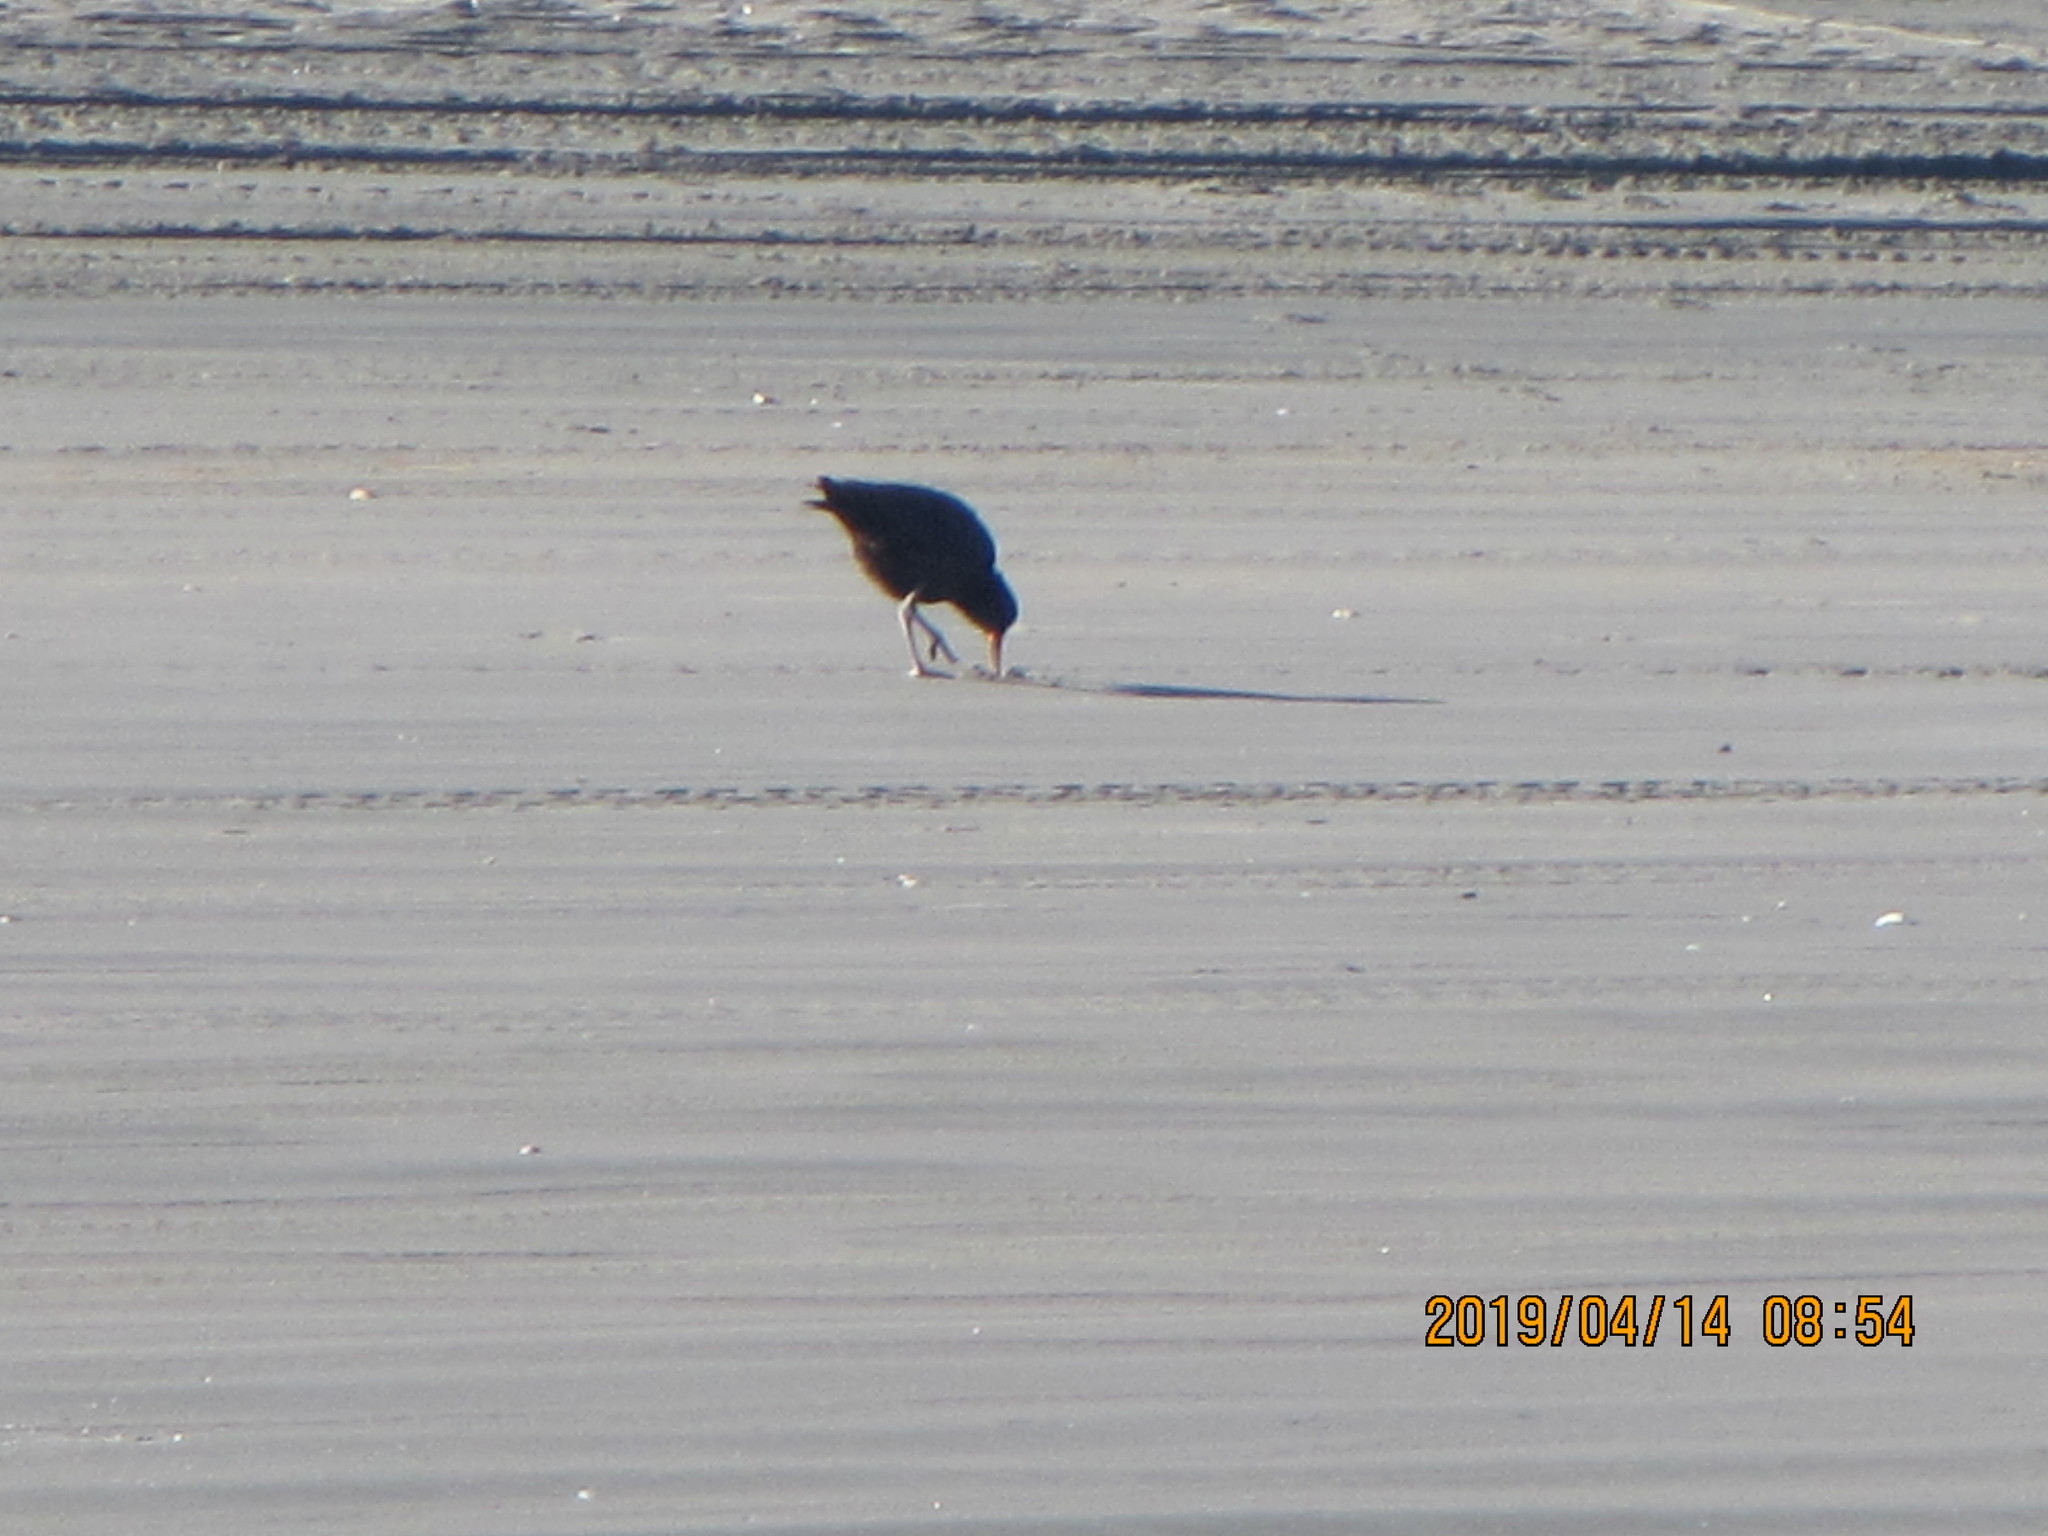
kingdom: Animalia
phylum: Chordata
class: Aves
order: Charadriiformes
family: Haematopodidae
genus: Haematopus
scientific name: Haematopus unicolor
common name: Variable oystercatcher
